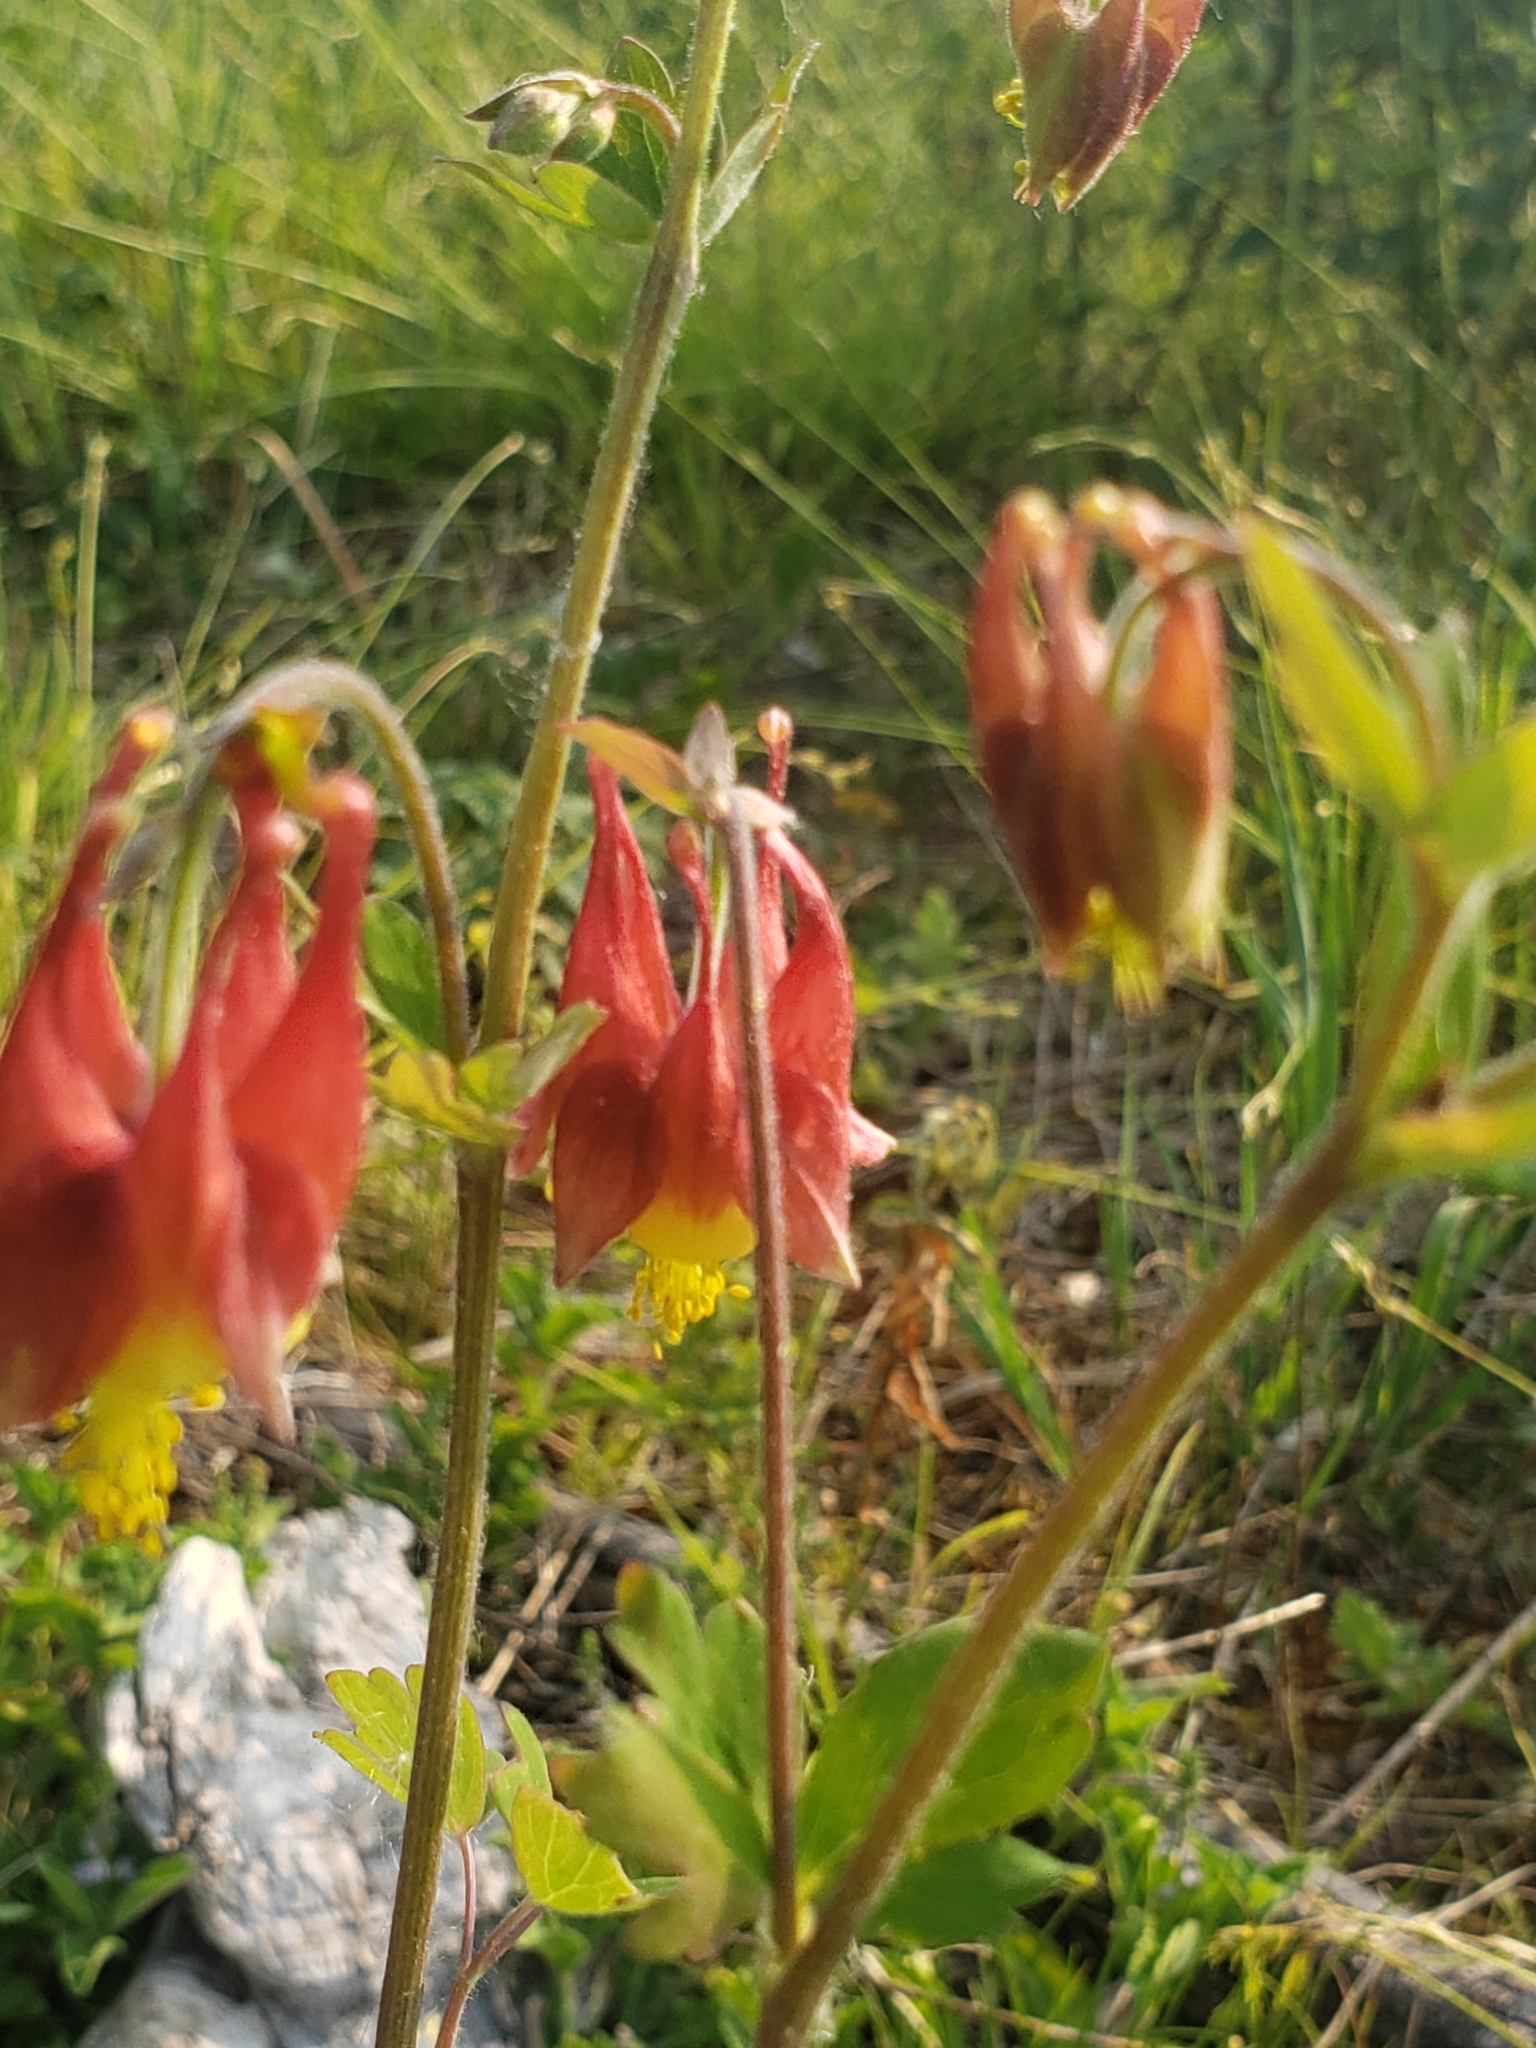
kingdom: Plantae
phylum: Tracheophyta
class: Magnoliopsida
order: Ranunculales
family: Ranunculaceae
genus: Aquilegia
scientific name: Aquilegia canadensis
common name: American columbine
